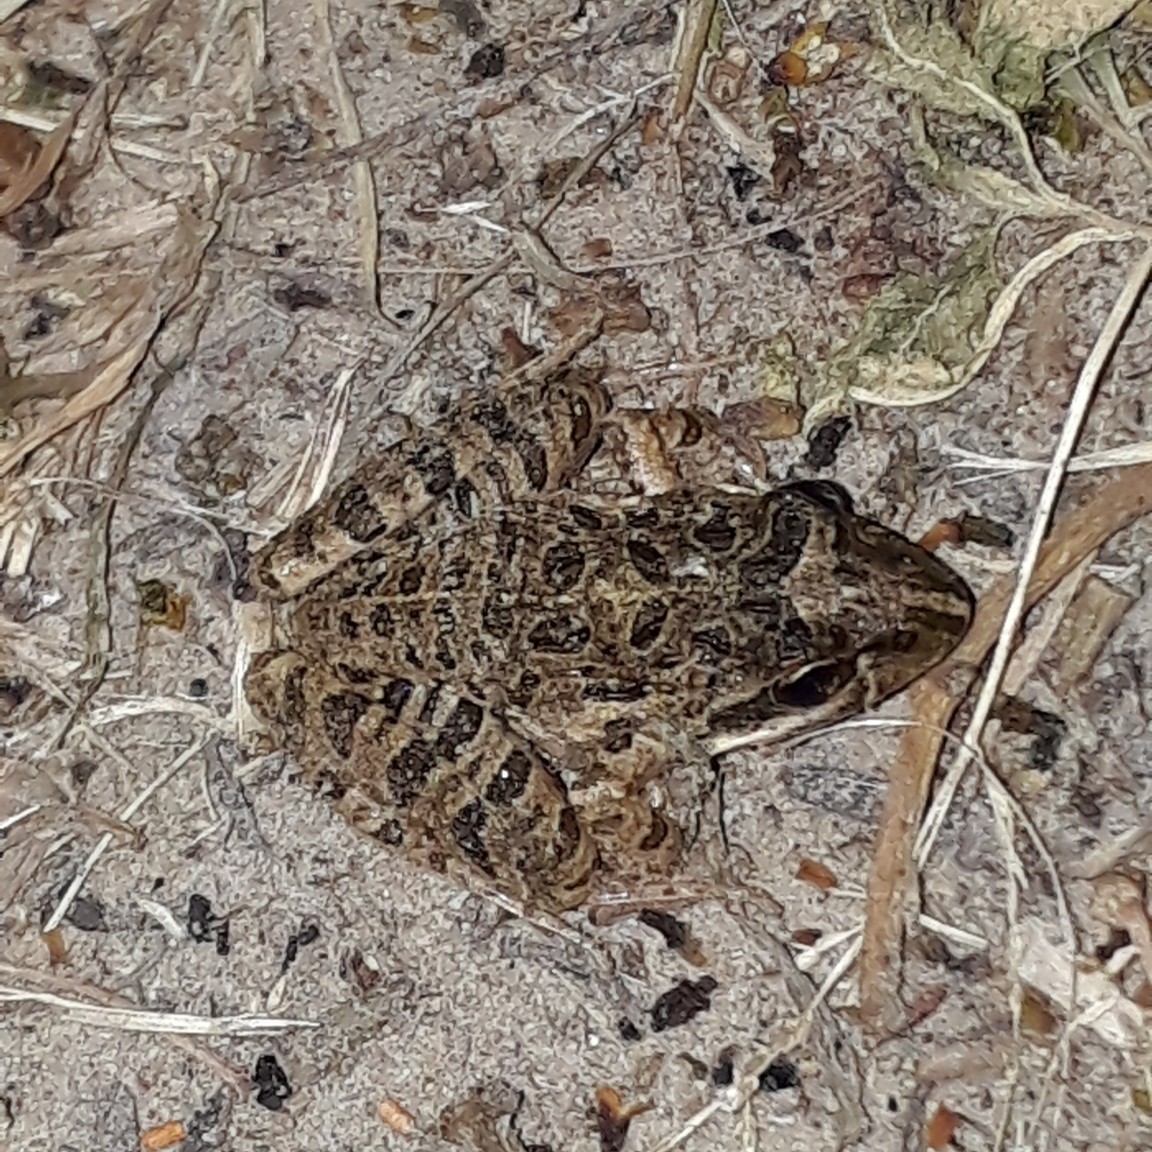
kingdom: Animalia
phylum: Chordata
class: Amphibia
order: Anura
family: Pyxicephalidae
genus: Strongylopus
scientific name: Strongylopus grayii
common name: Gray's stream frog
